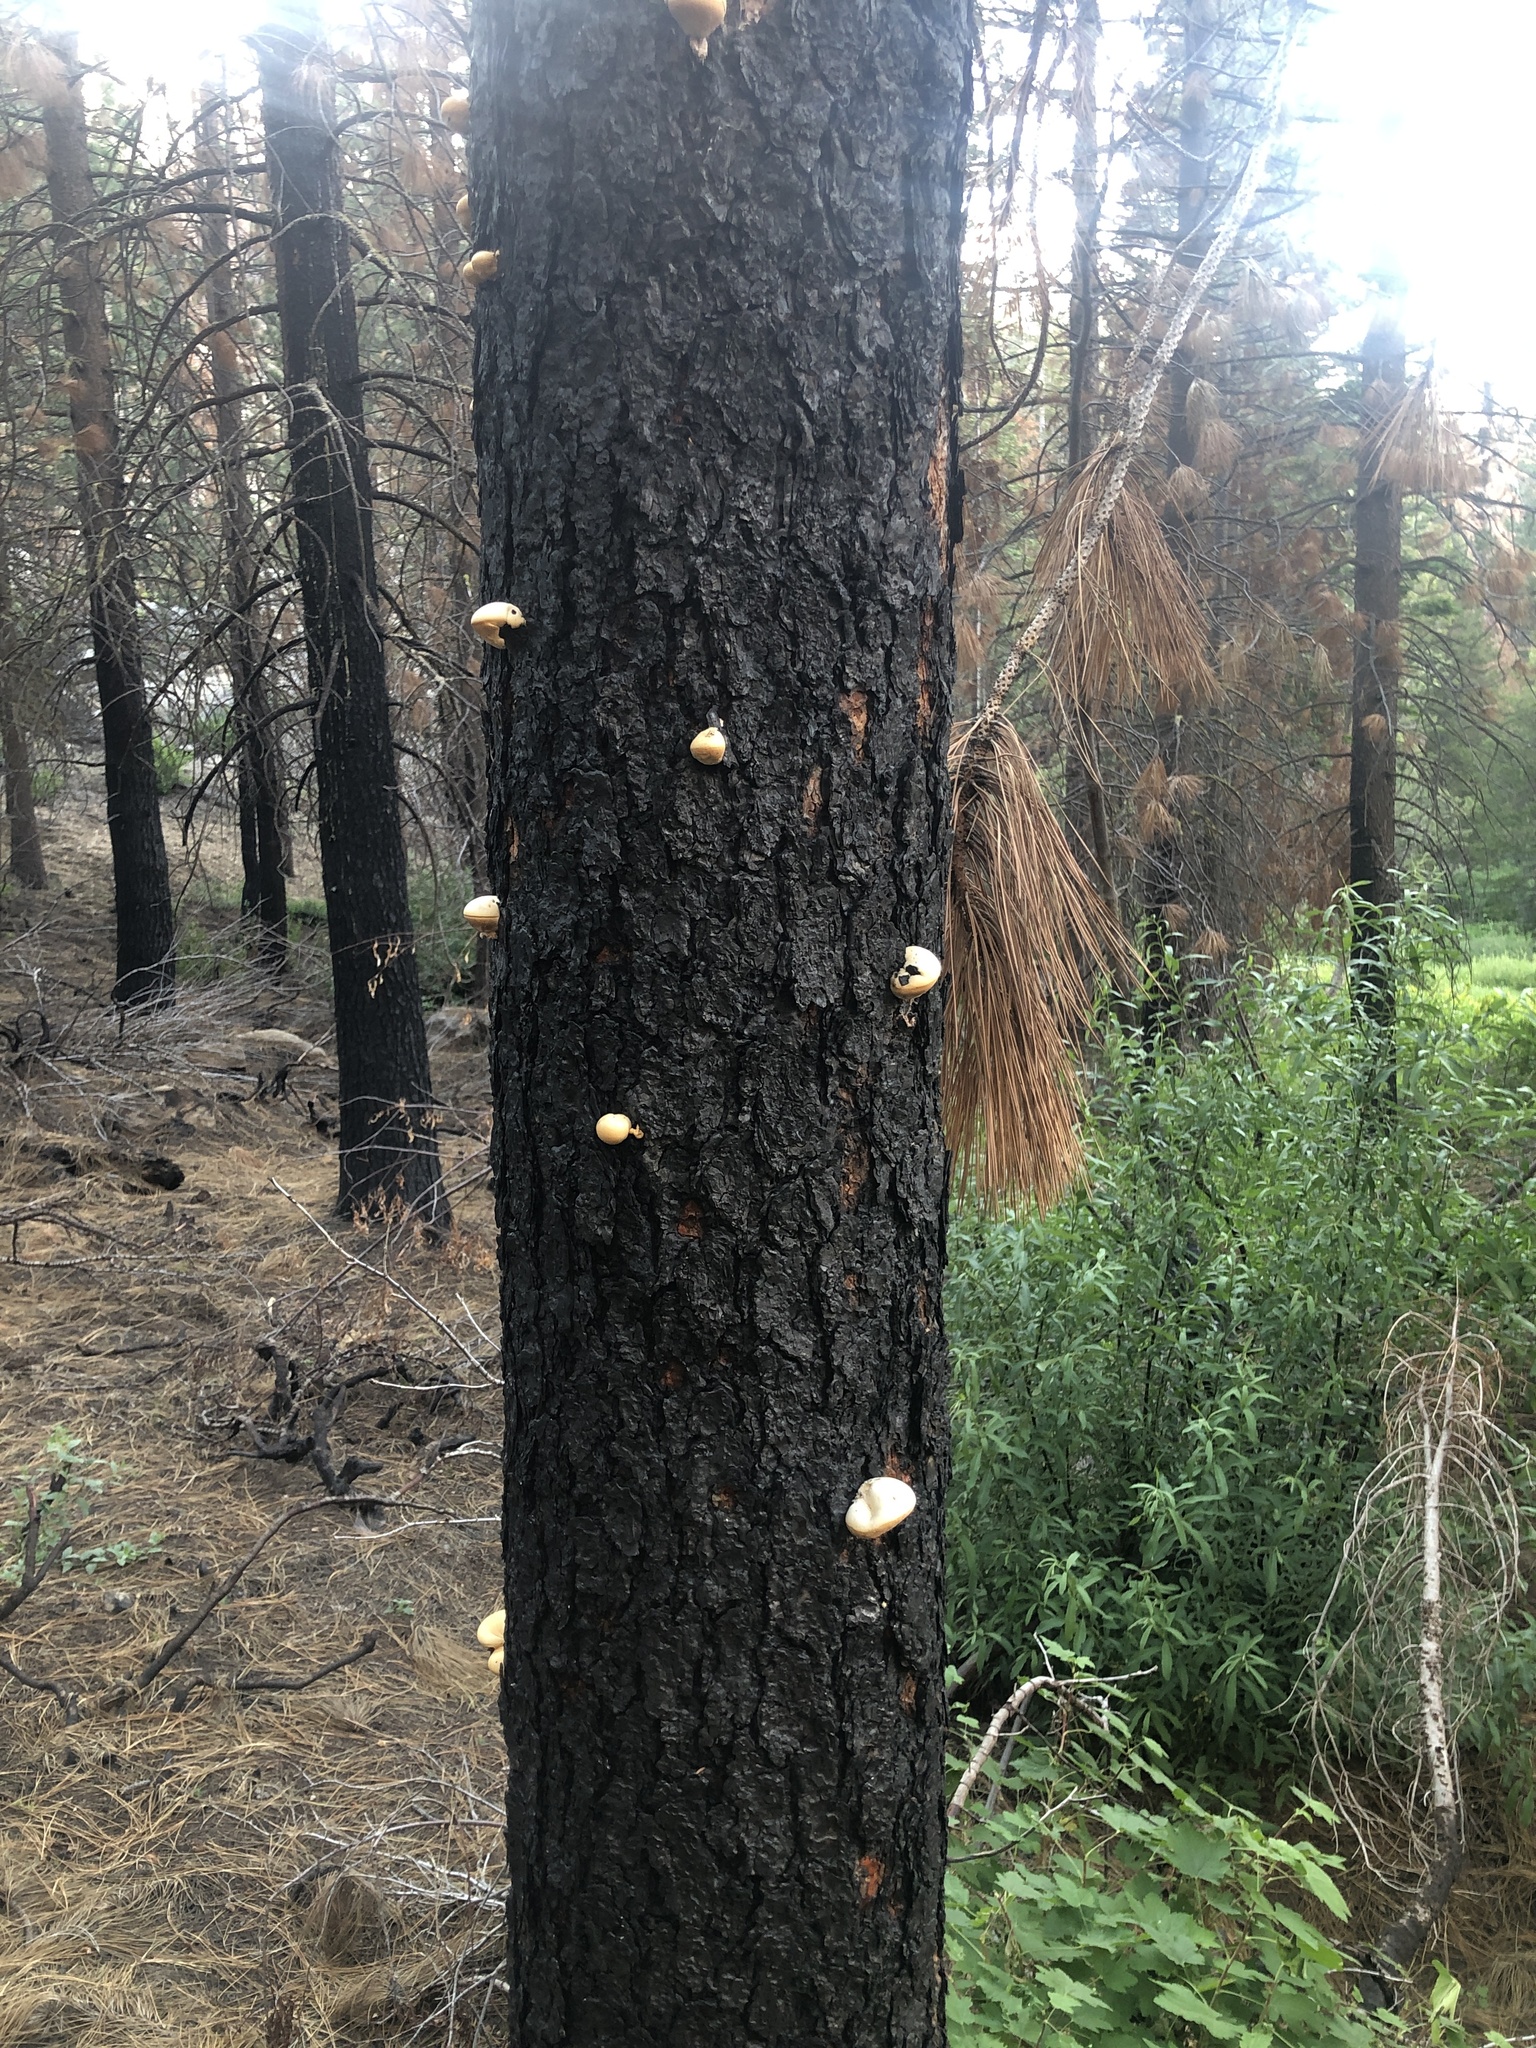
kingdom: Fungi
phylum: Basidiomycota
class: Agaricomycetes
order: Polyporales
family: Polyporaceae
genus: Cryptoporus
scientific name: Cryptoporus volvatus
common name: Veiled polypore
